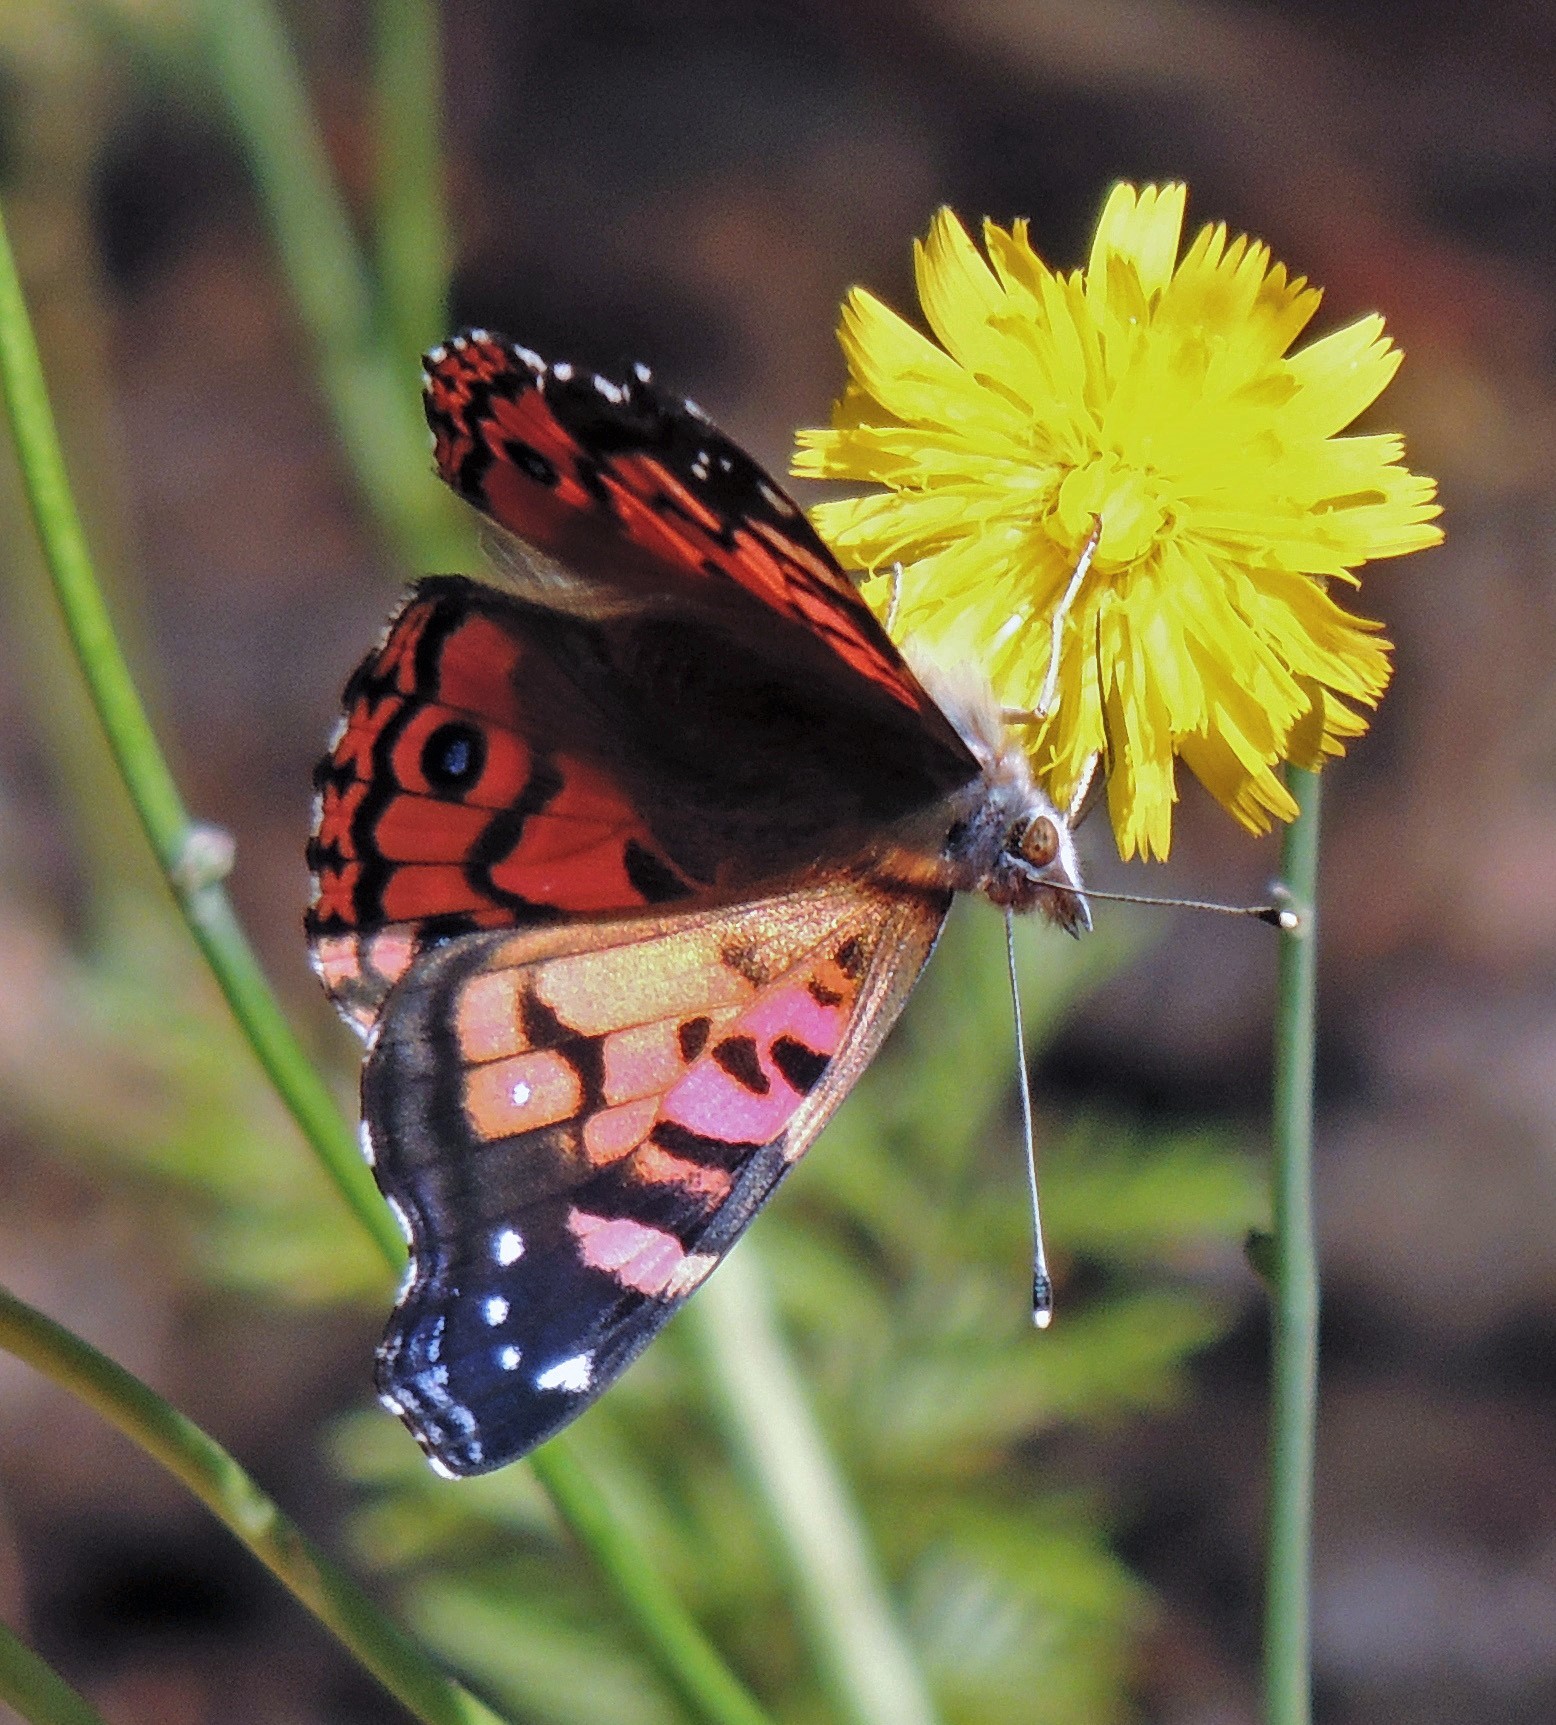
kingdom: Animalia
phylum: Arthropoda
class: Insecta
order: Lepidoptera
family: Nymphalidae
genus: Vanessa
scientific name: Vanessa terpsichore
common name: Chilean lady
